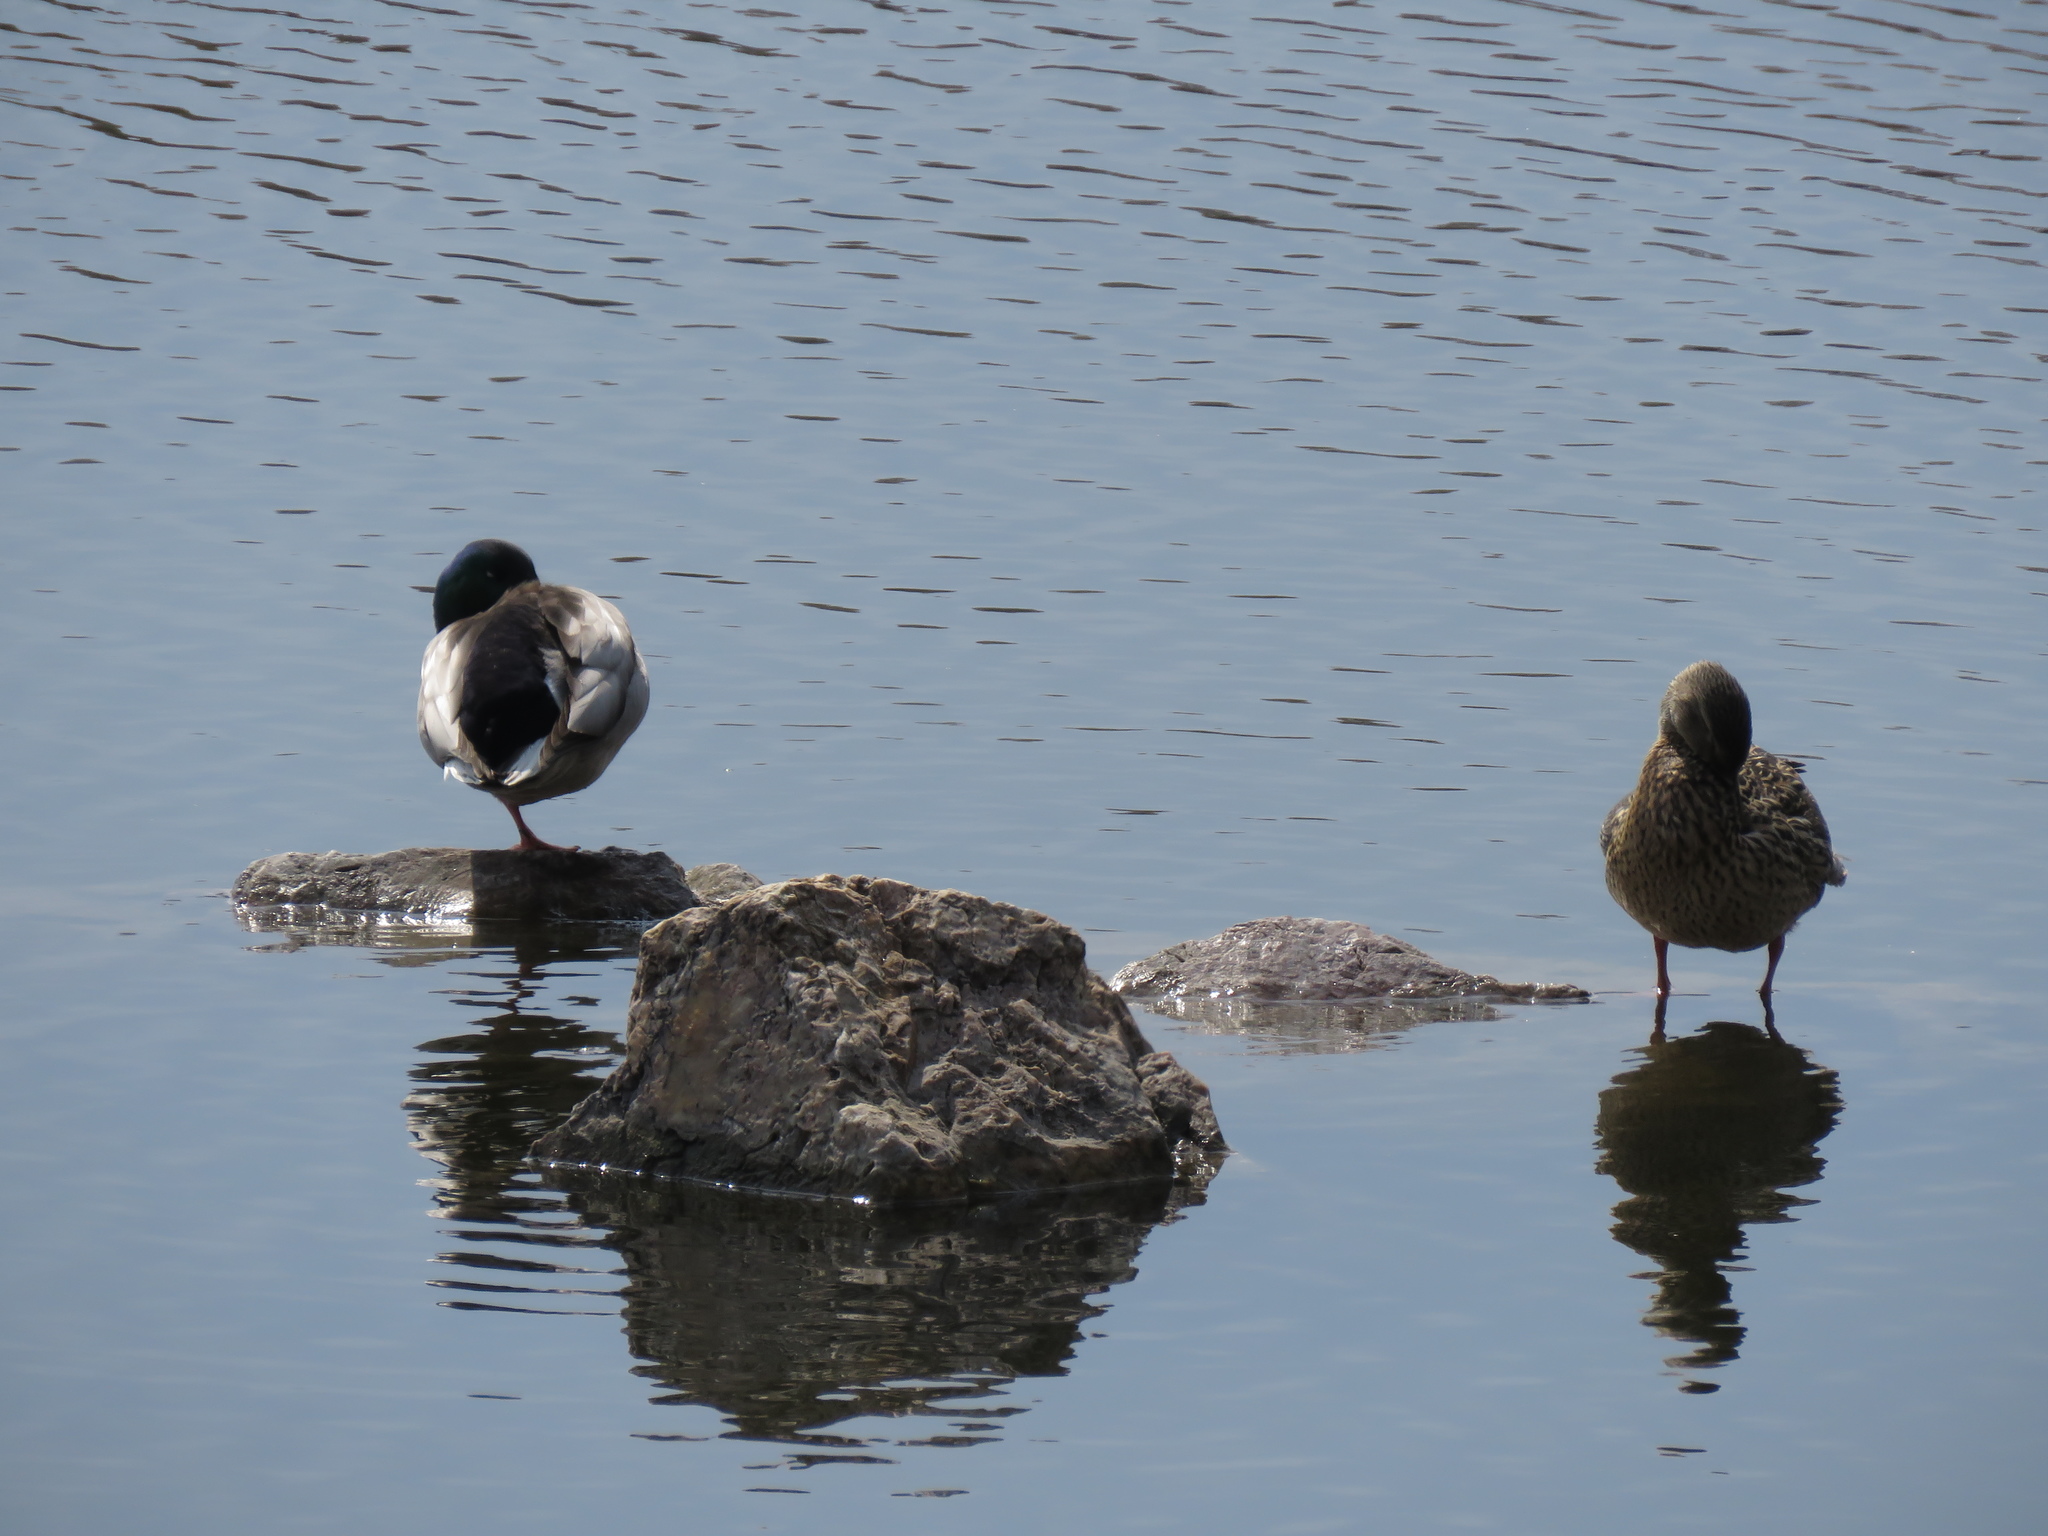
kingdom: Animalia
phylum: Chordata
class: Aves
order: Anseriformes
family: Anatidae
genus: Anas
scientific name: Anas platyrhynchos
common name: Mallard
